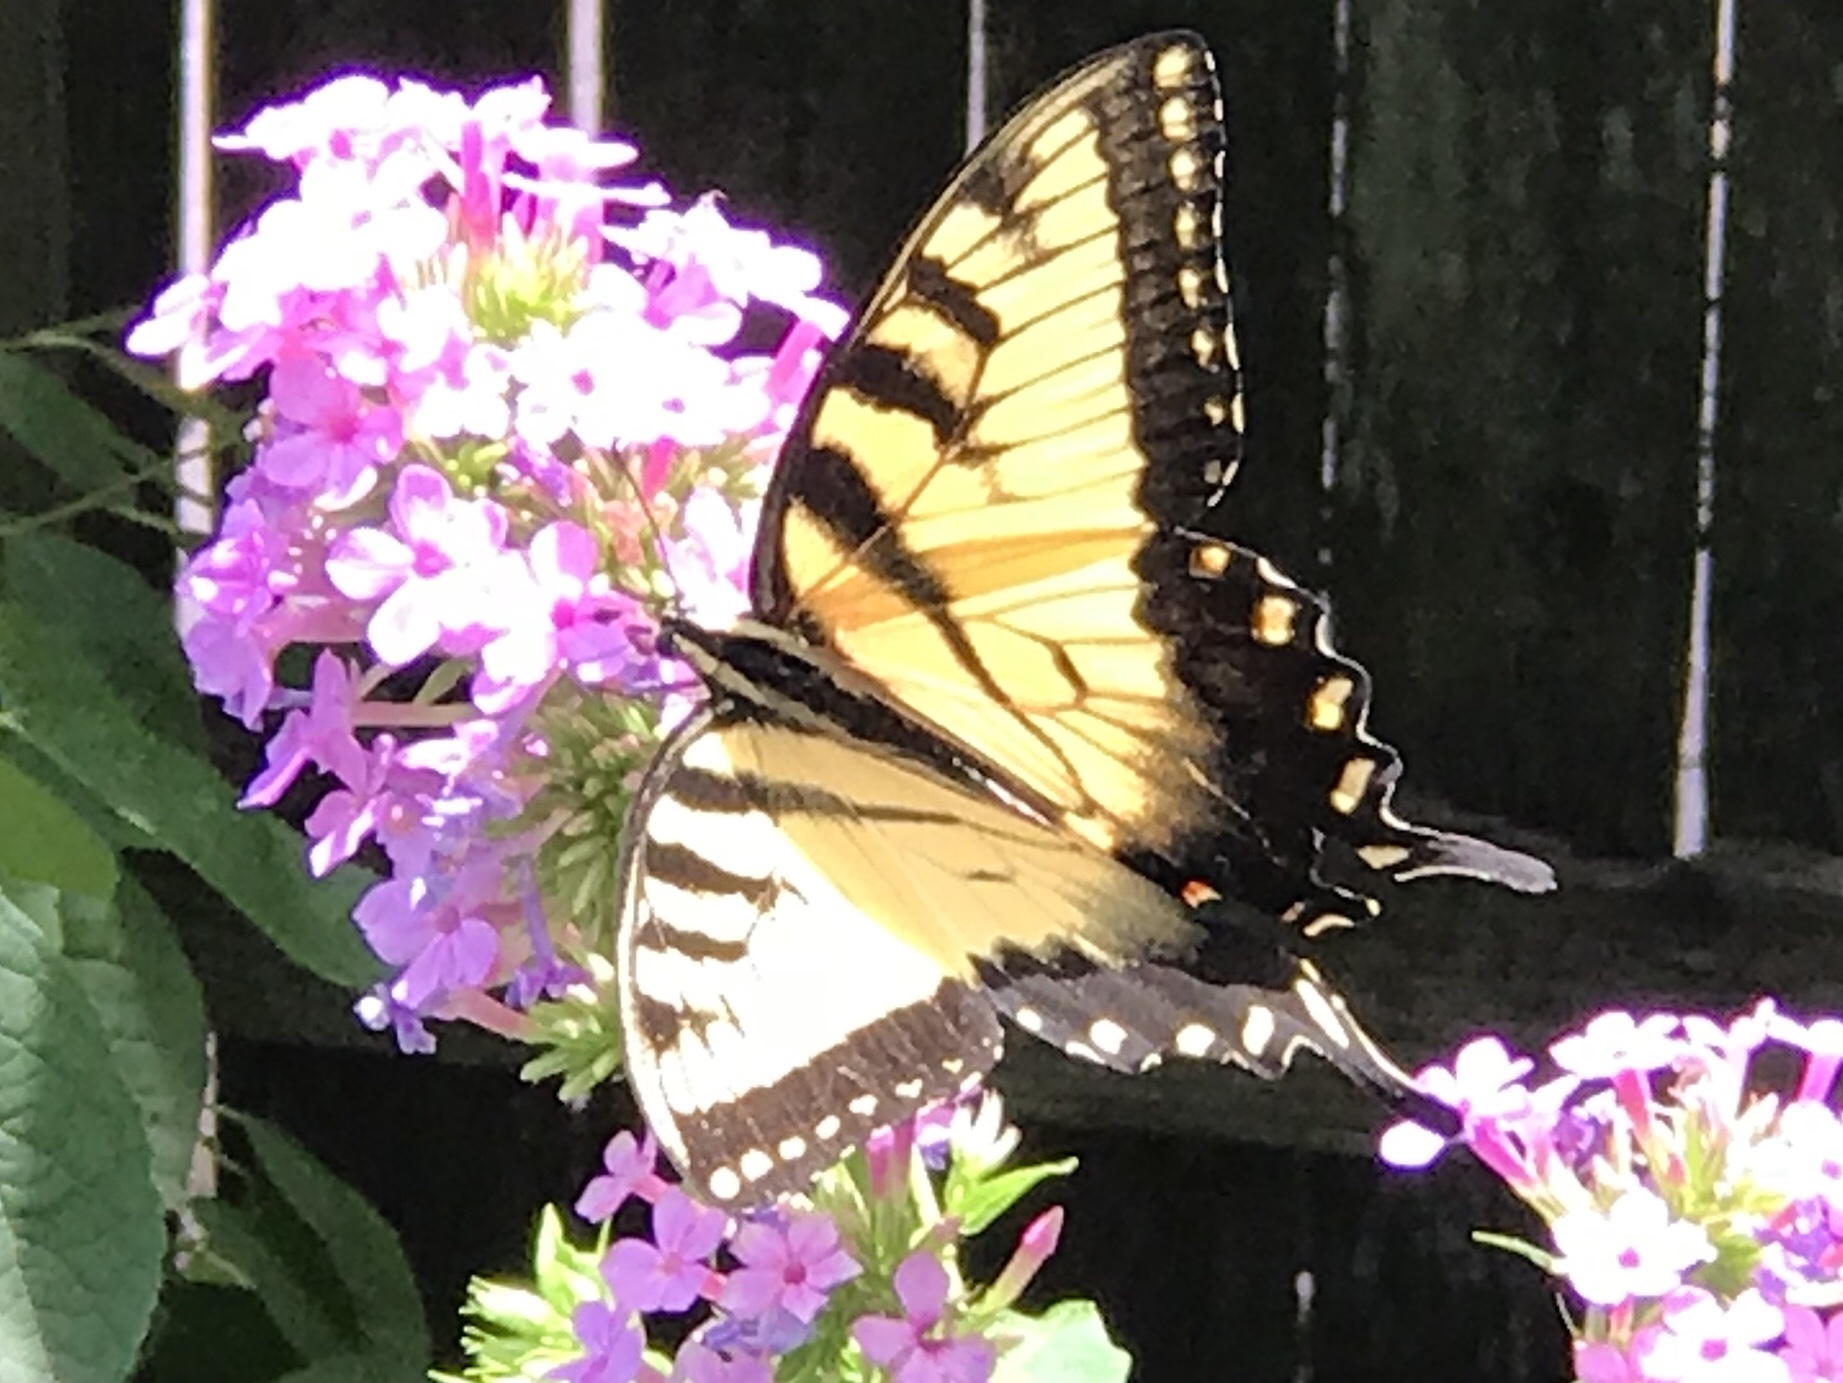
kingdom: Animalia
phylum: Arthropoda
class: Insecta
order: Lepidoptera
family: Papilionidae
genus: Papilio
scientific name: Papilio glaucus
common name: Tiger swallowtail
